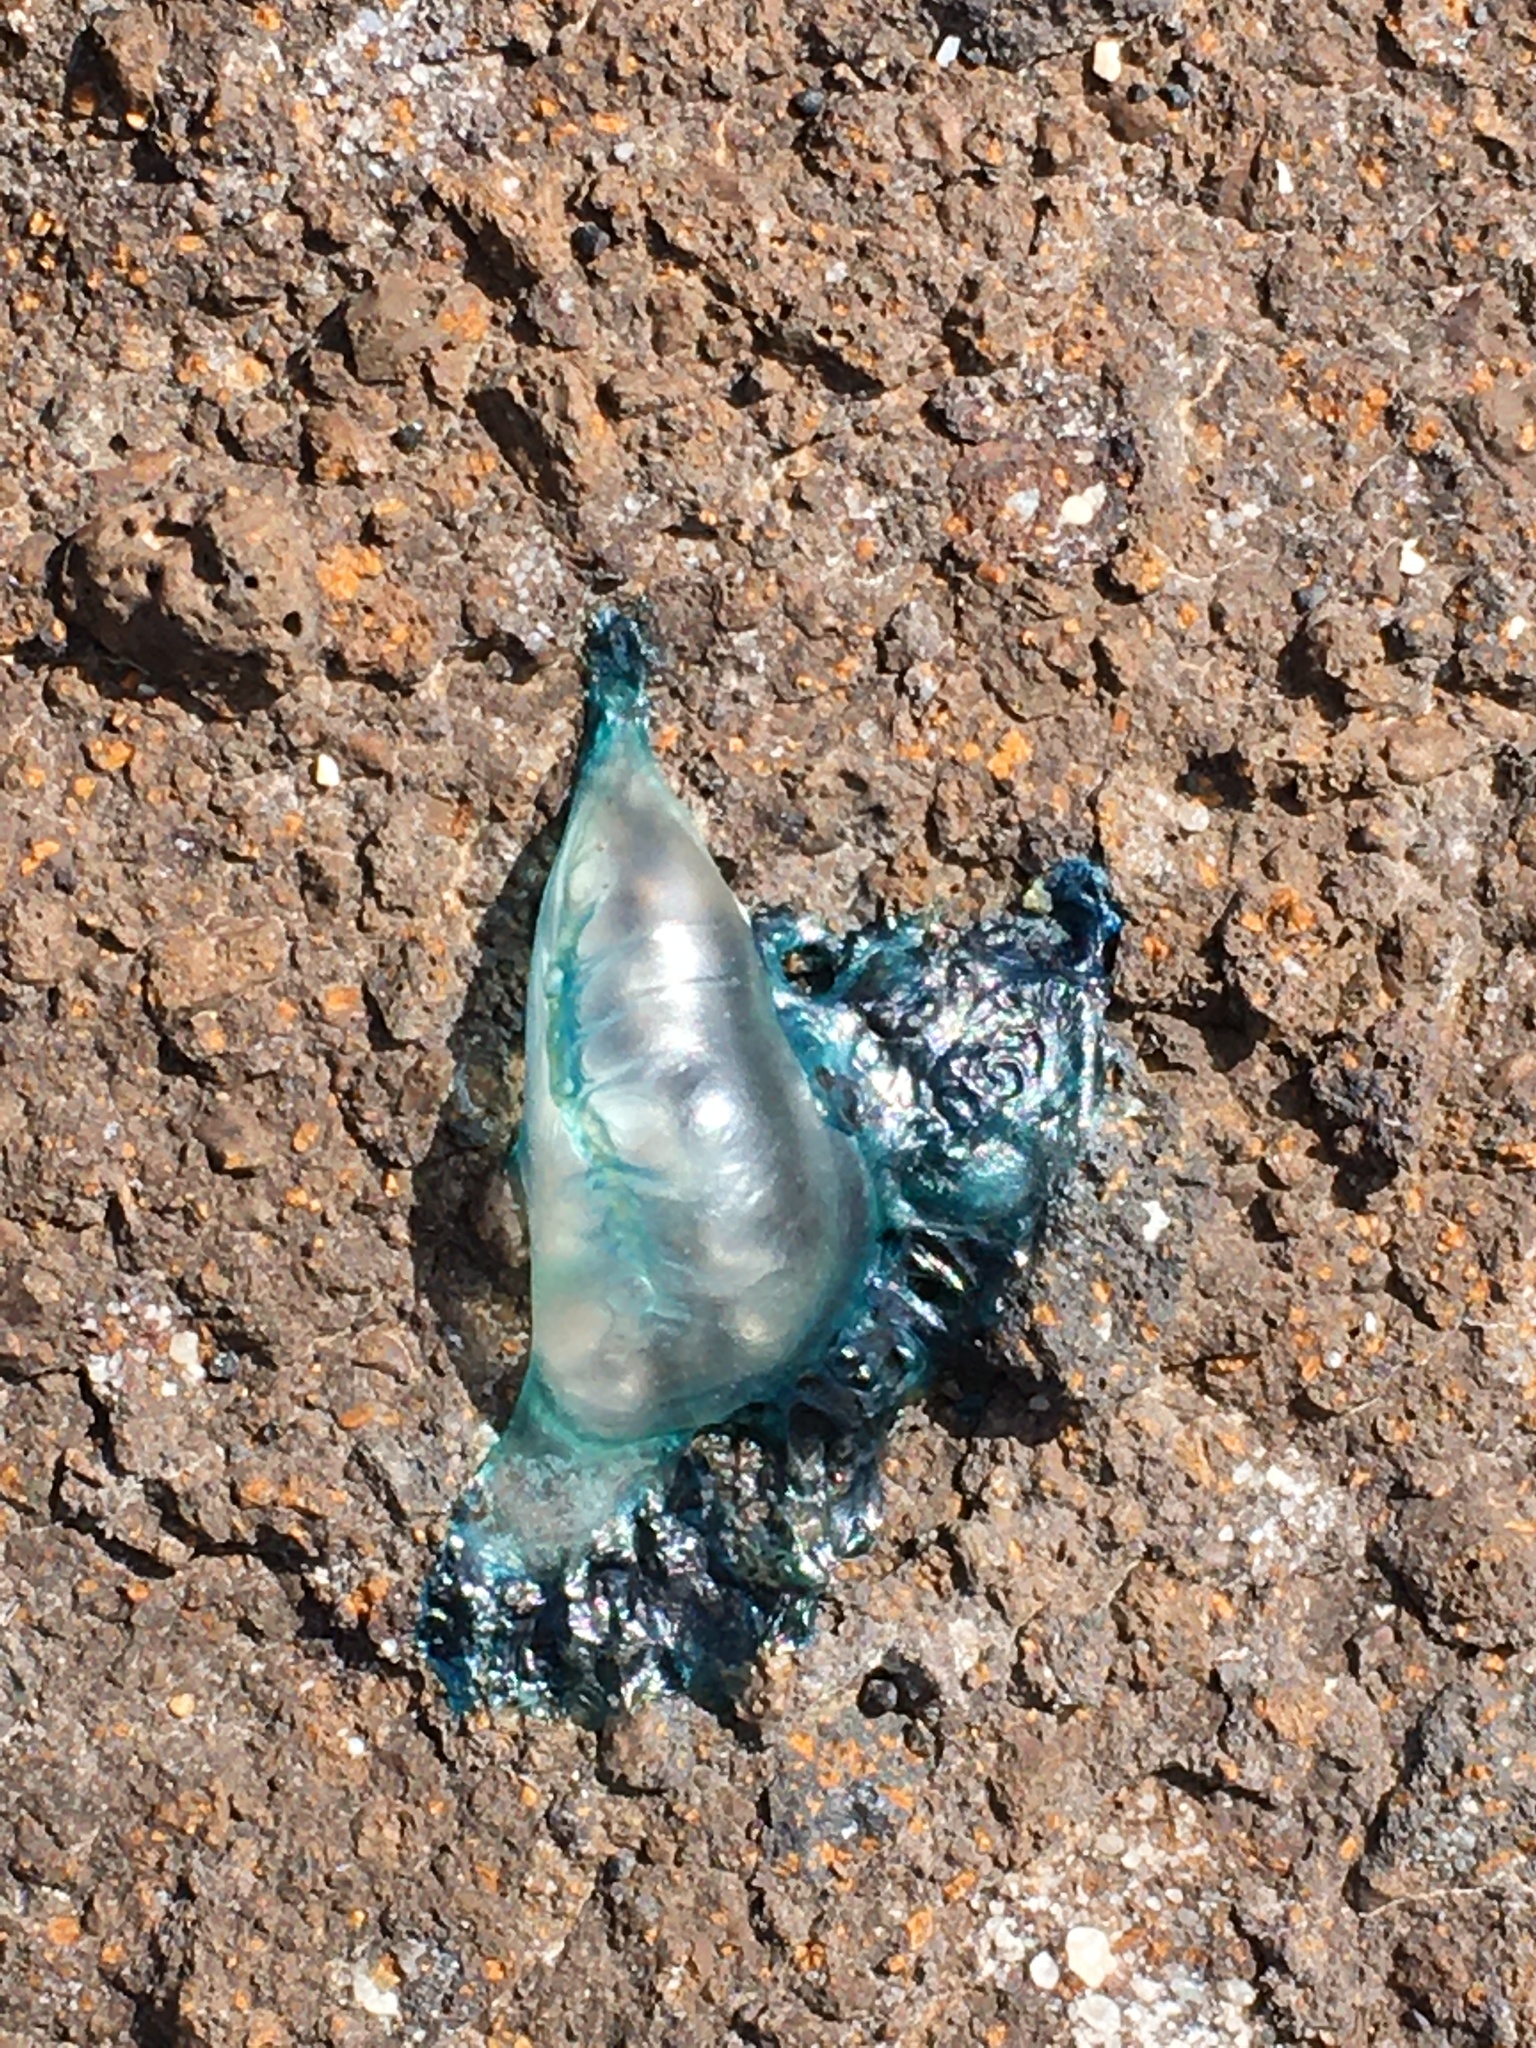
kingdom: Animalia
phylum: Cnidaria
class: Hydrozoa
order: Siphonophorae
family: Physaliidae
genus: Physalia
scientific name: Physalia physalis
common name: Portuguese man-of-war
